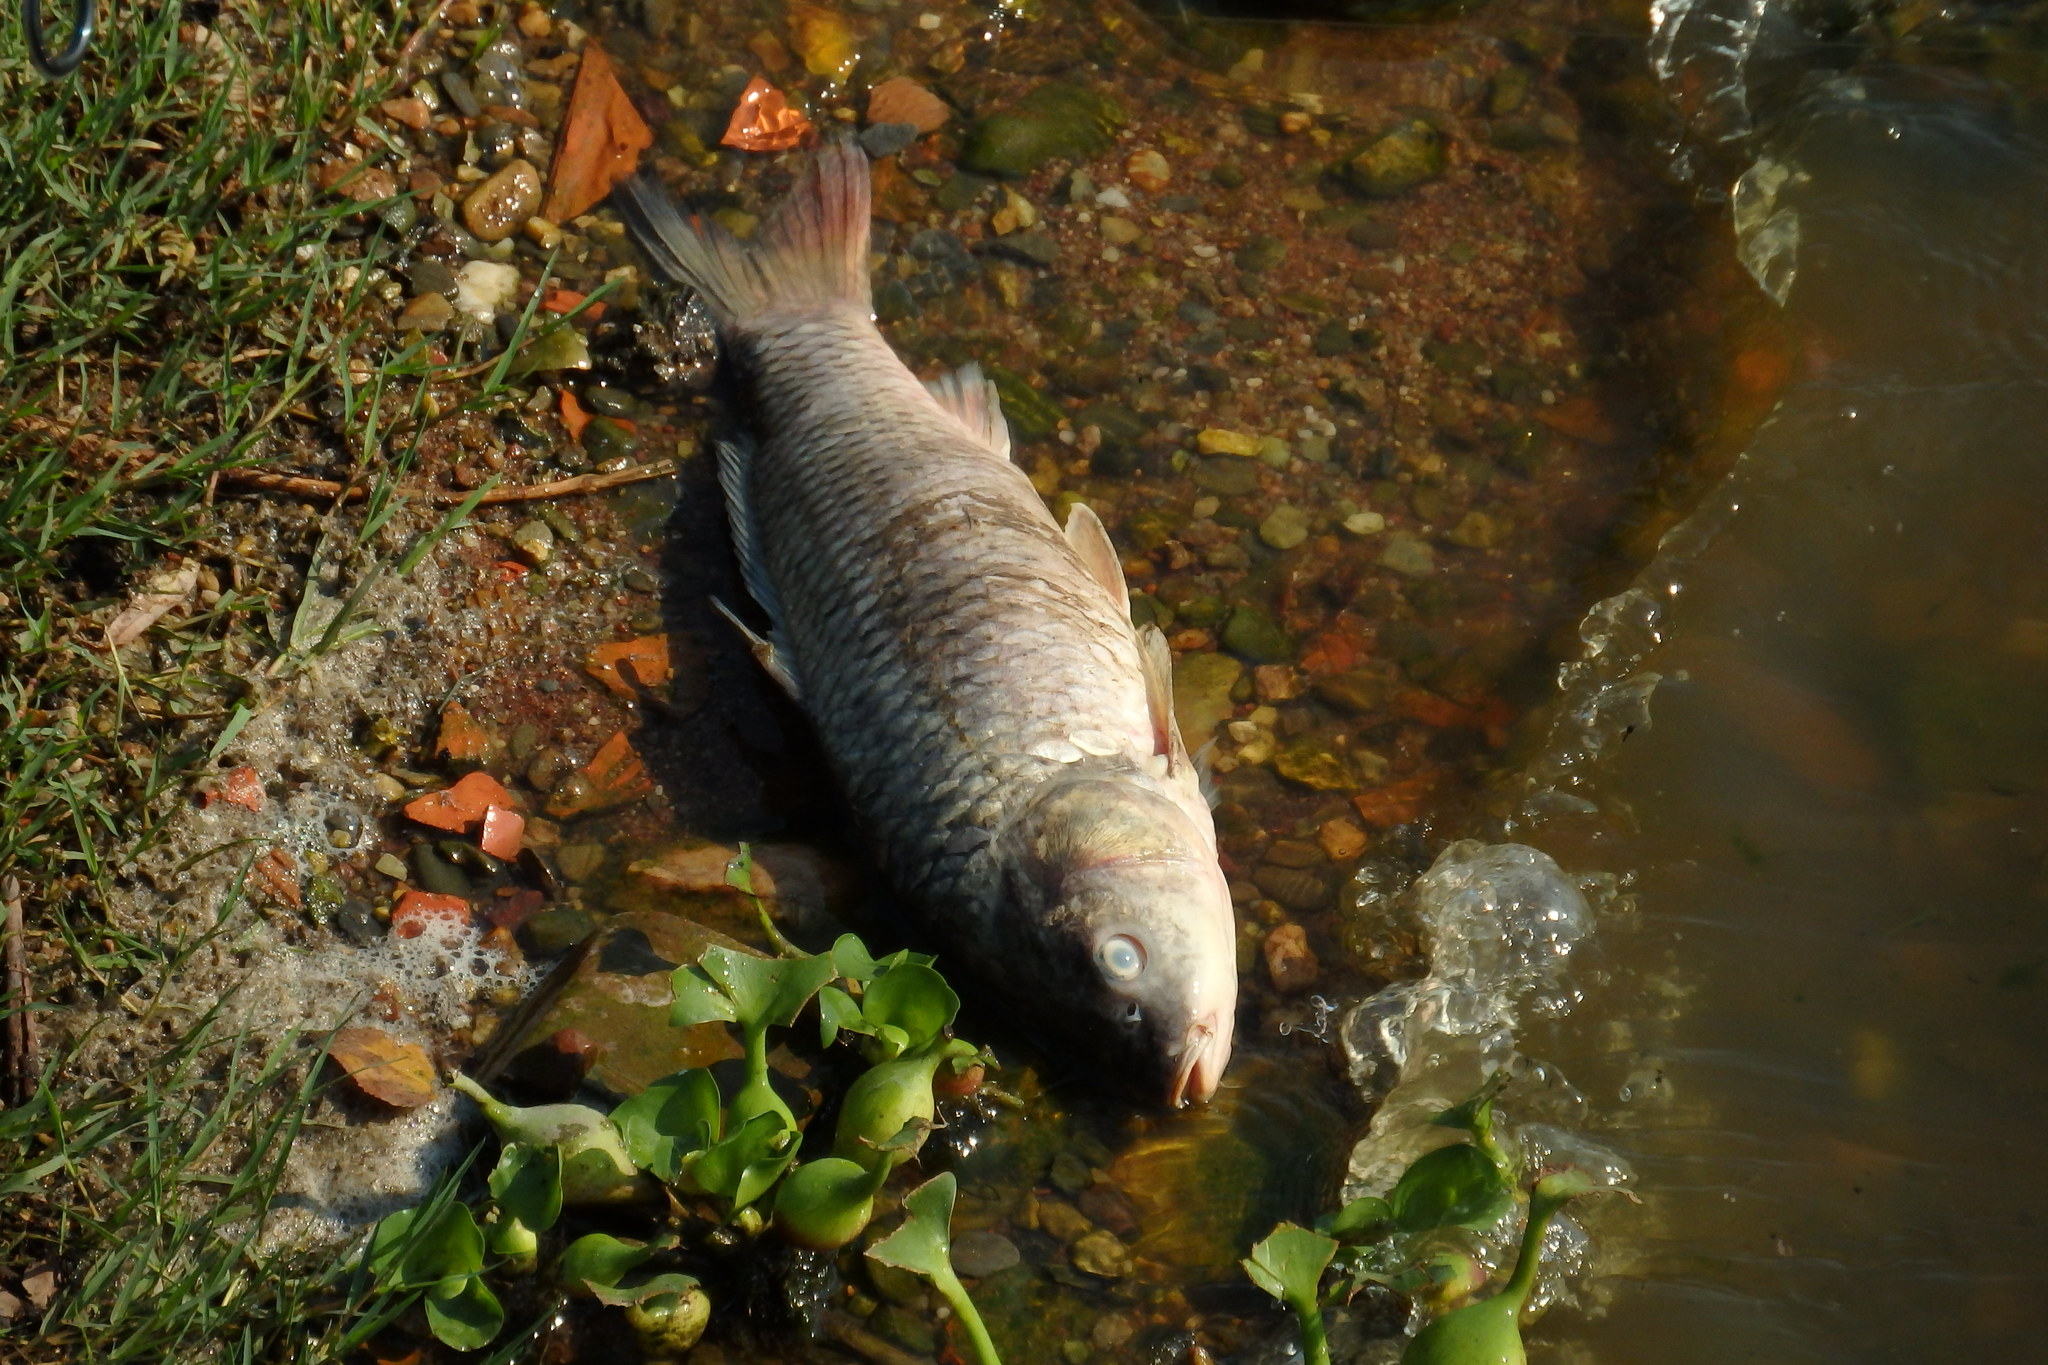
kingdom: Animalia
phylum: Chordata
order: Cypriniformes
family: Cyprinidae
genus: Cyprinus
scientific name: Cyprinus carpio
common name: Common carp
